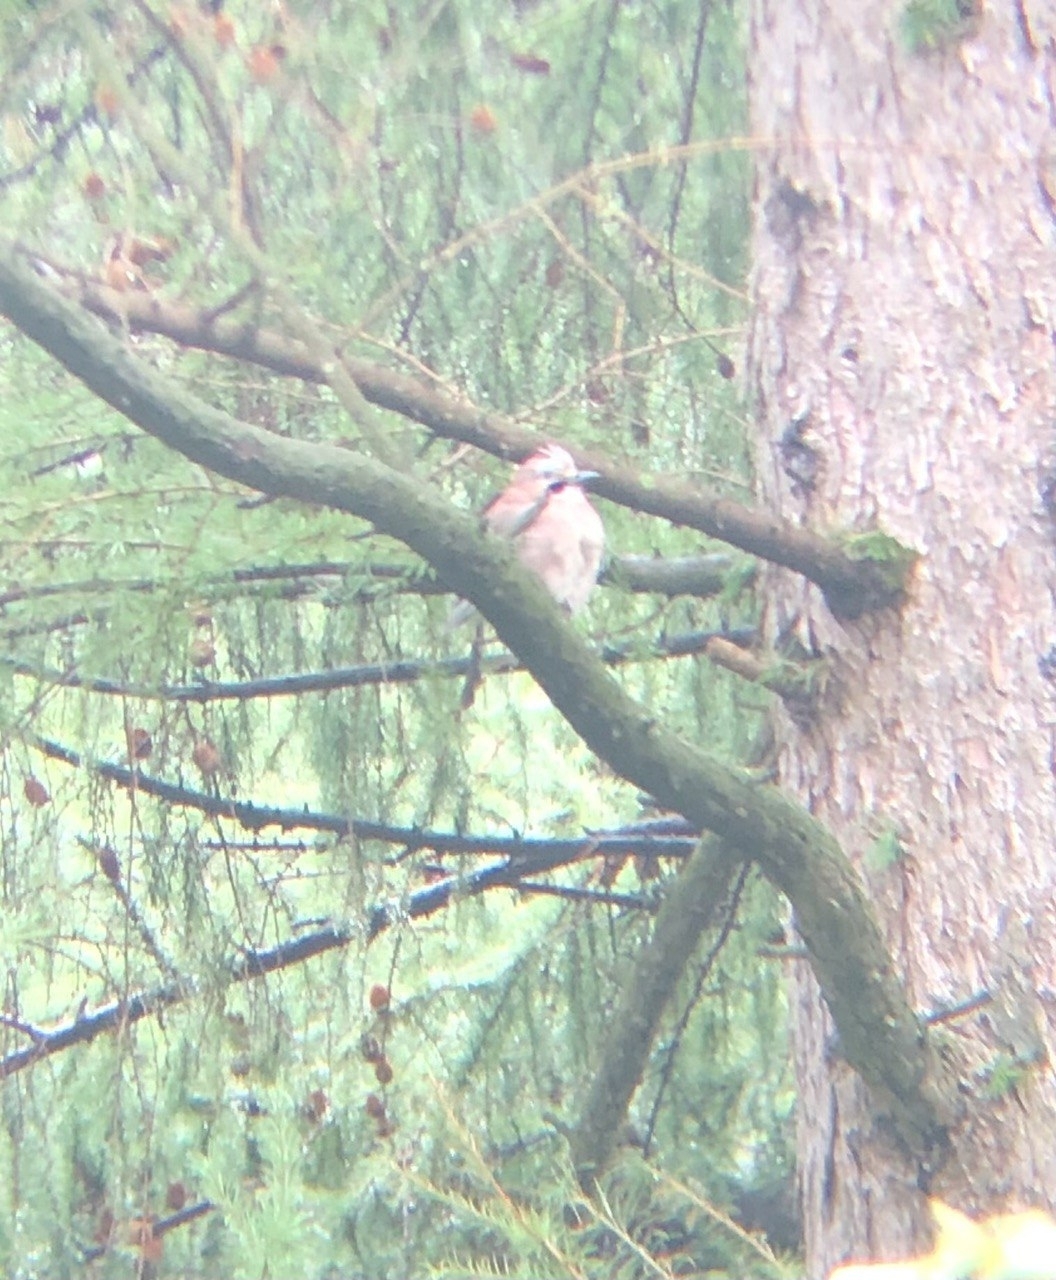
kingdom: Animalia
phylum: Chordata
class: Aves
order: Passeriformes
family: Corvidae
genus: Garrulus
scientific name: Garrulus glandarius
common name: Eurasian jay
